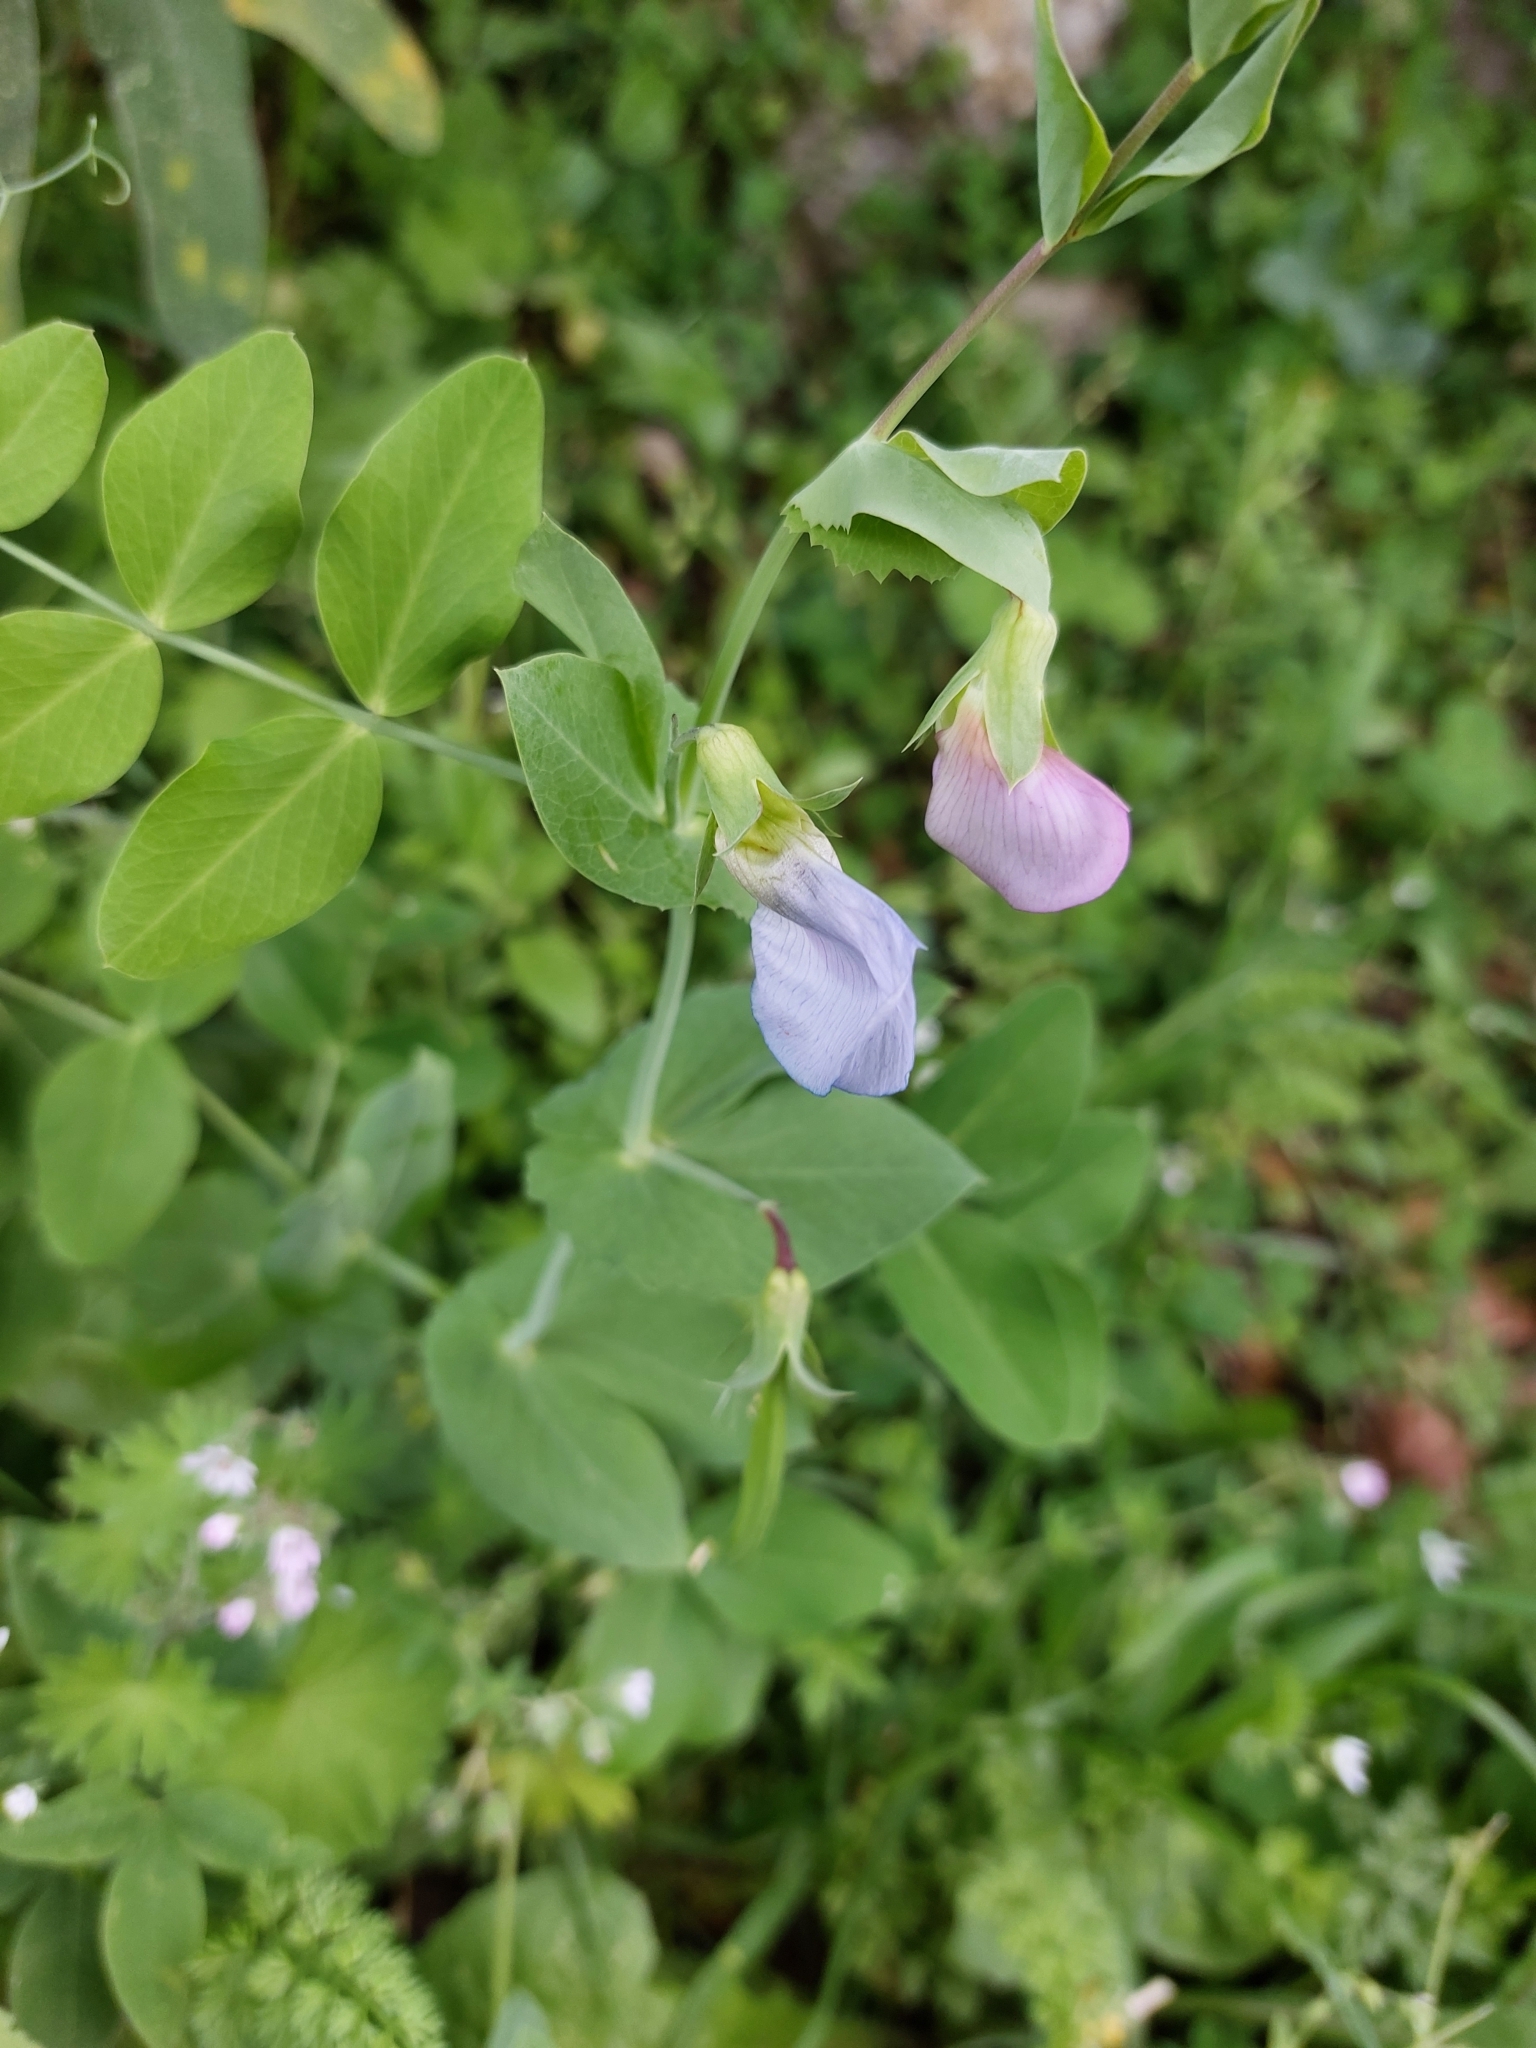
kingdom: Plantae
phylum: Tracheophyta
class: Magnoliopsida
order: Fabales
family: Fabaceae
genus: Lathyrus
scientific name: Lathyrus oleraceus
